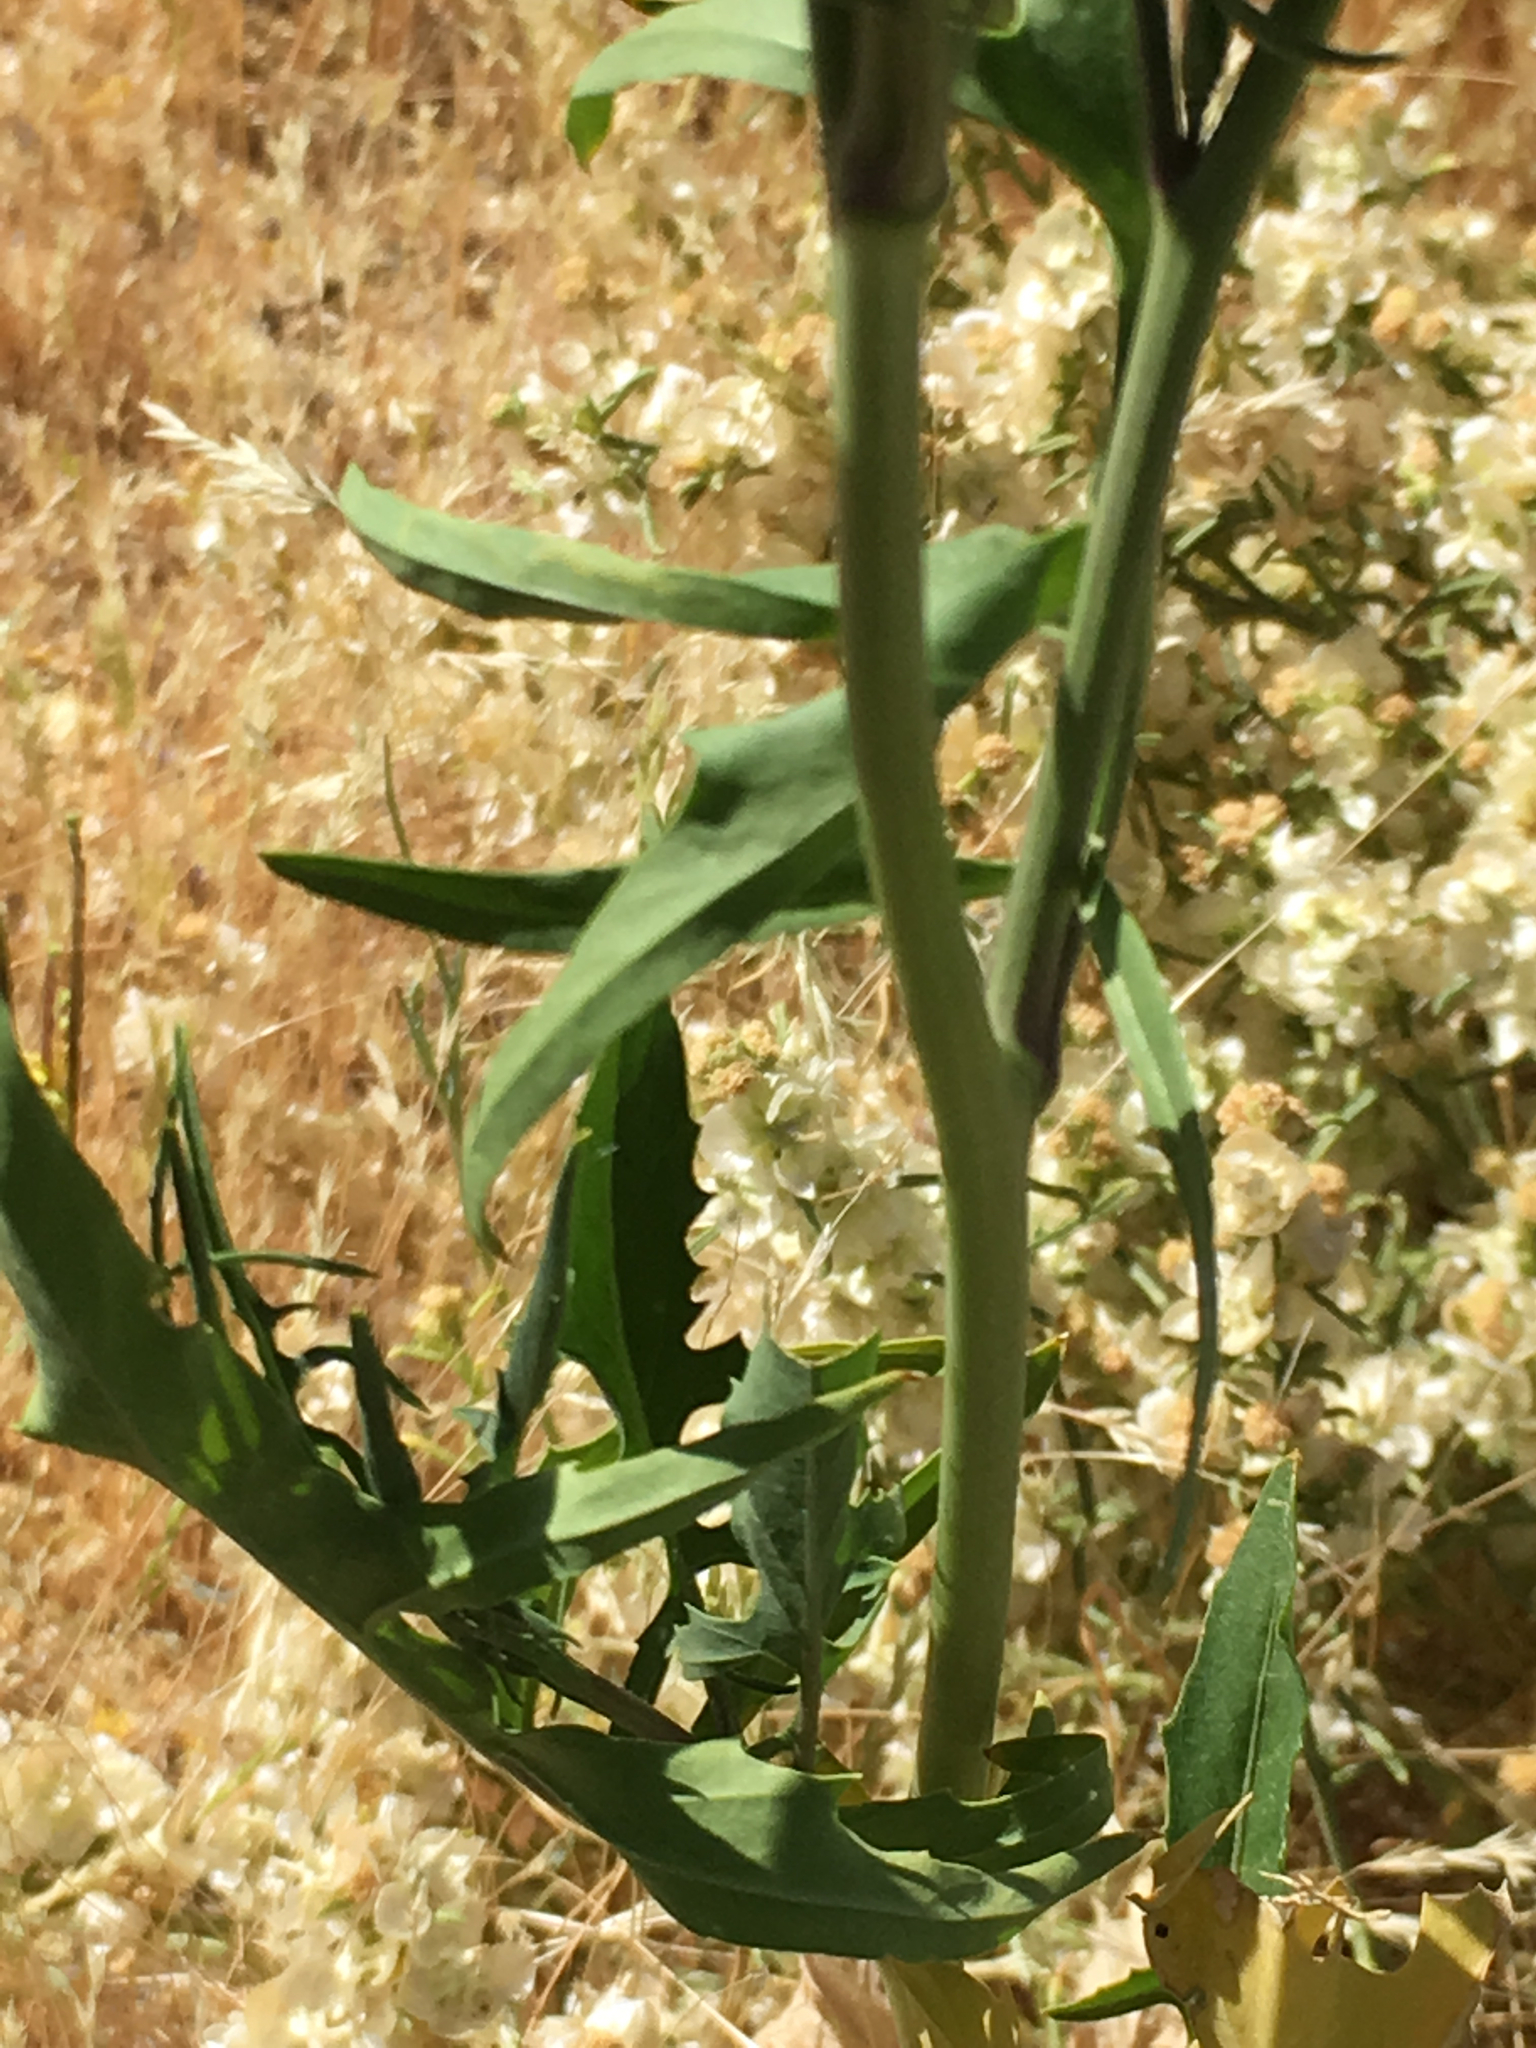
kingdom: Plantae
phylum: Tracheophyta
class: Magnoliopsida
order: Brassicales
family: Brassicaceae
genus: Sisymbrium
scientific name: Sisymbrium irio
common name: London rocket
